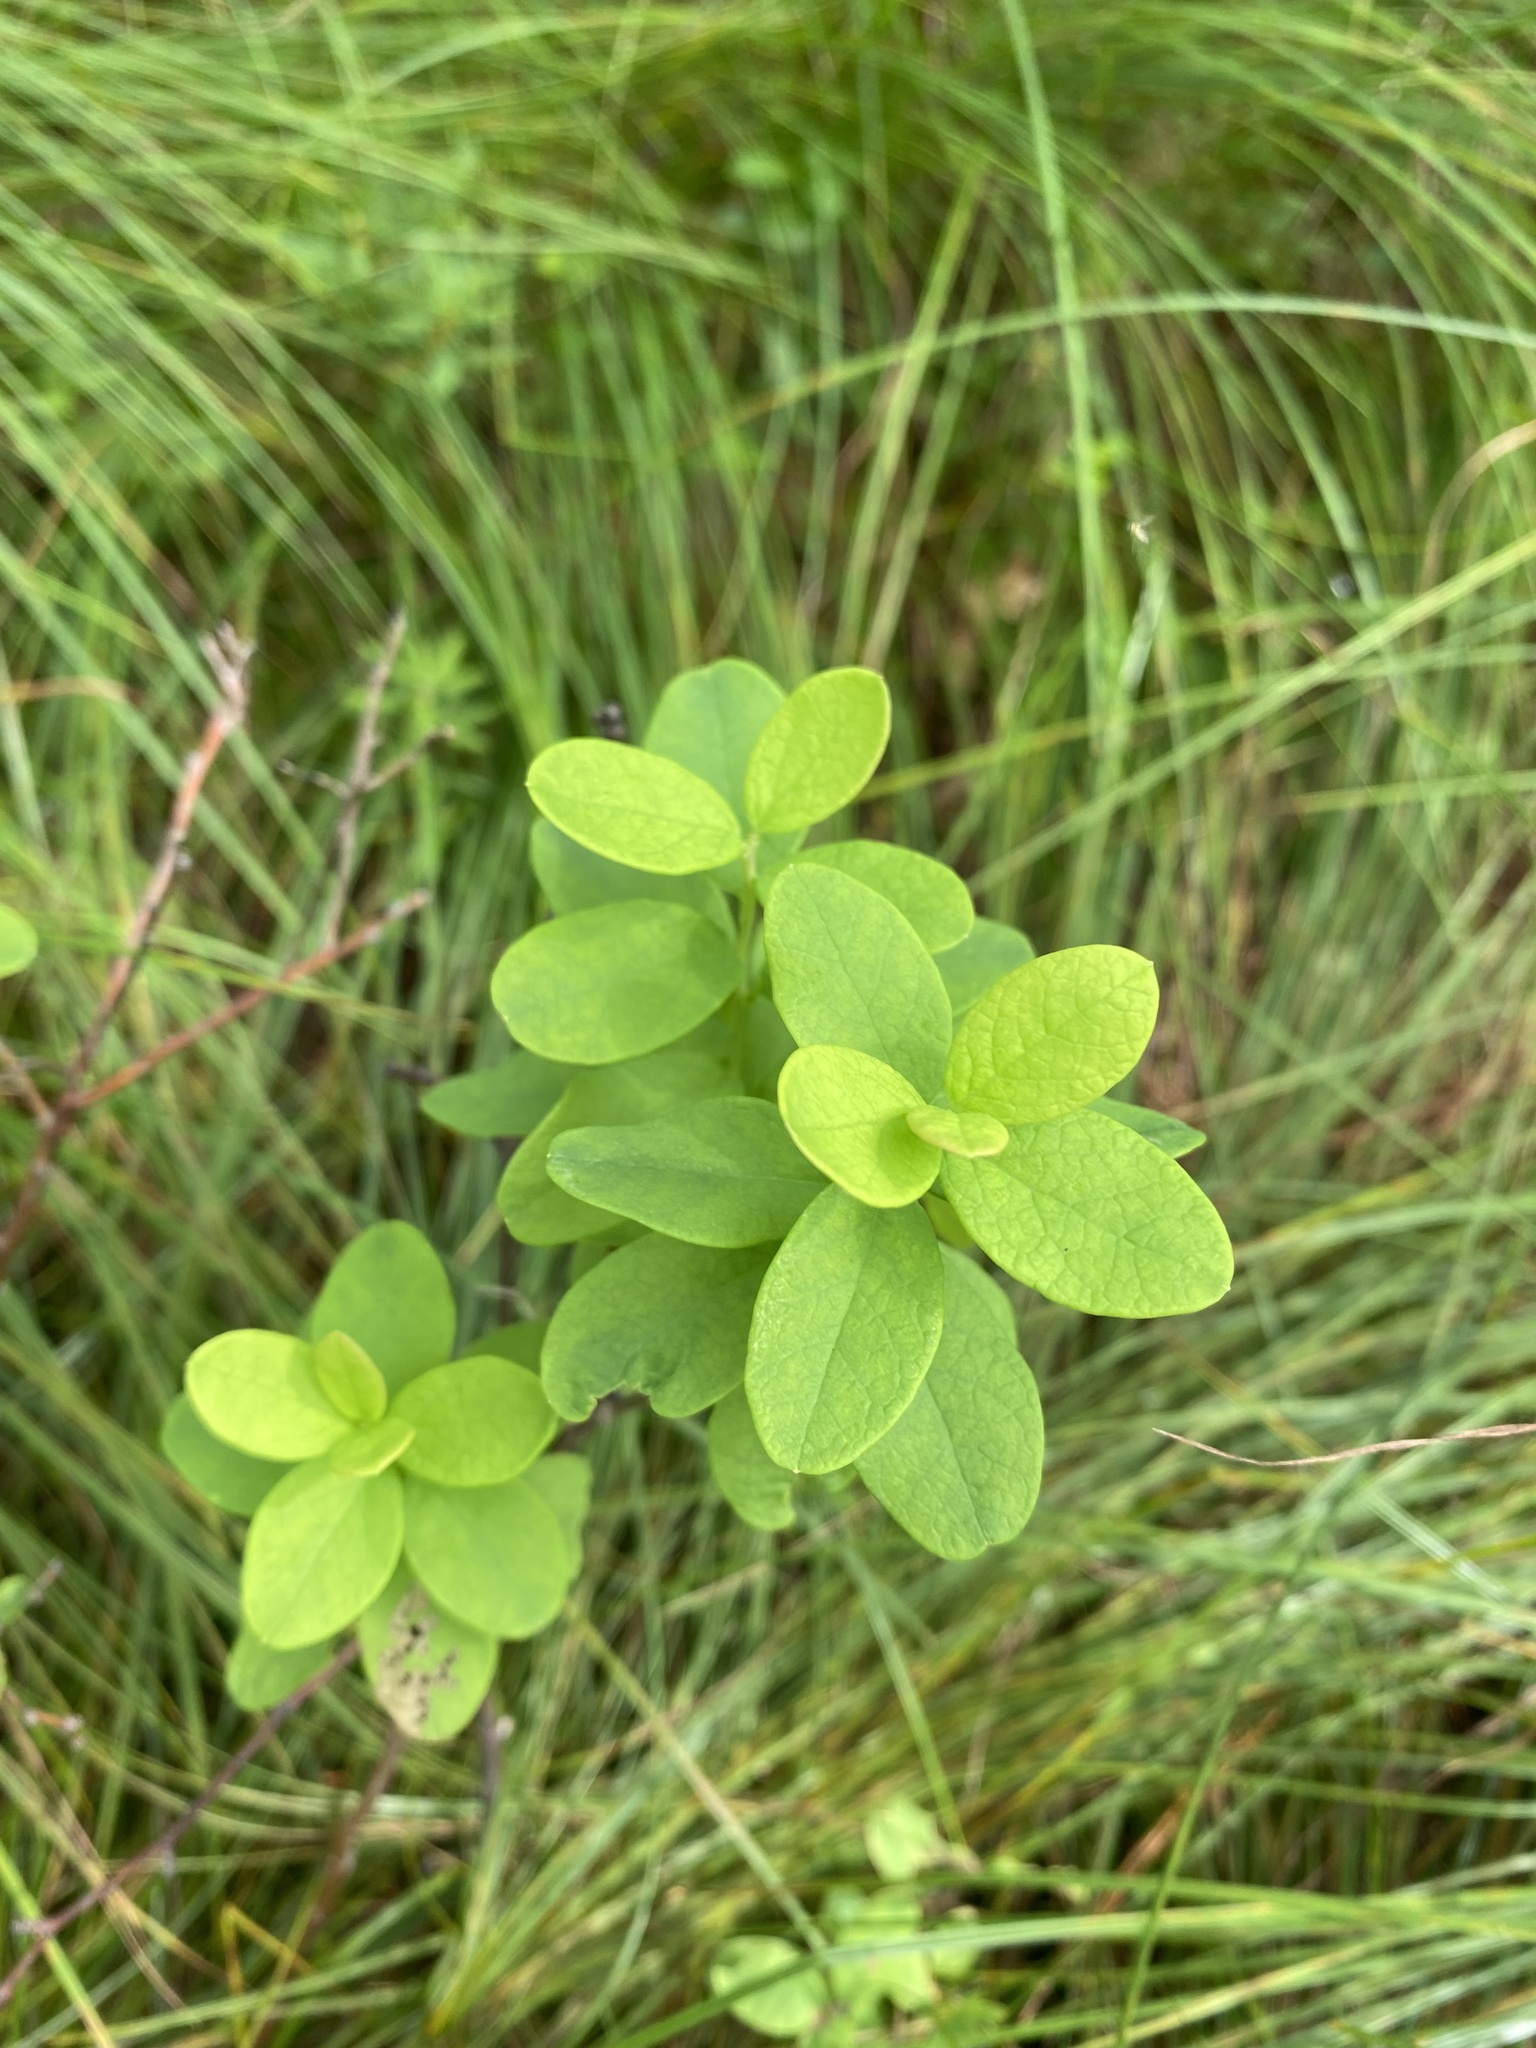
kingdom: Plantae
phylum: Tracheophyta
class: Magnoliopsida
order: Ericales
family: Ericaceae
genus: Vaccinium
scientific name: Vaccinium uliginosum
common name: Bog bilberry
